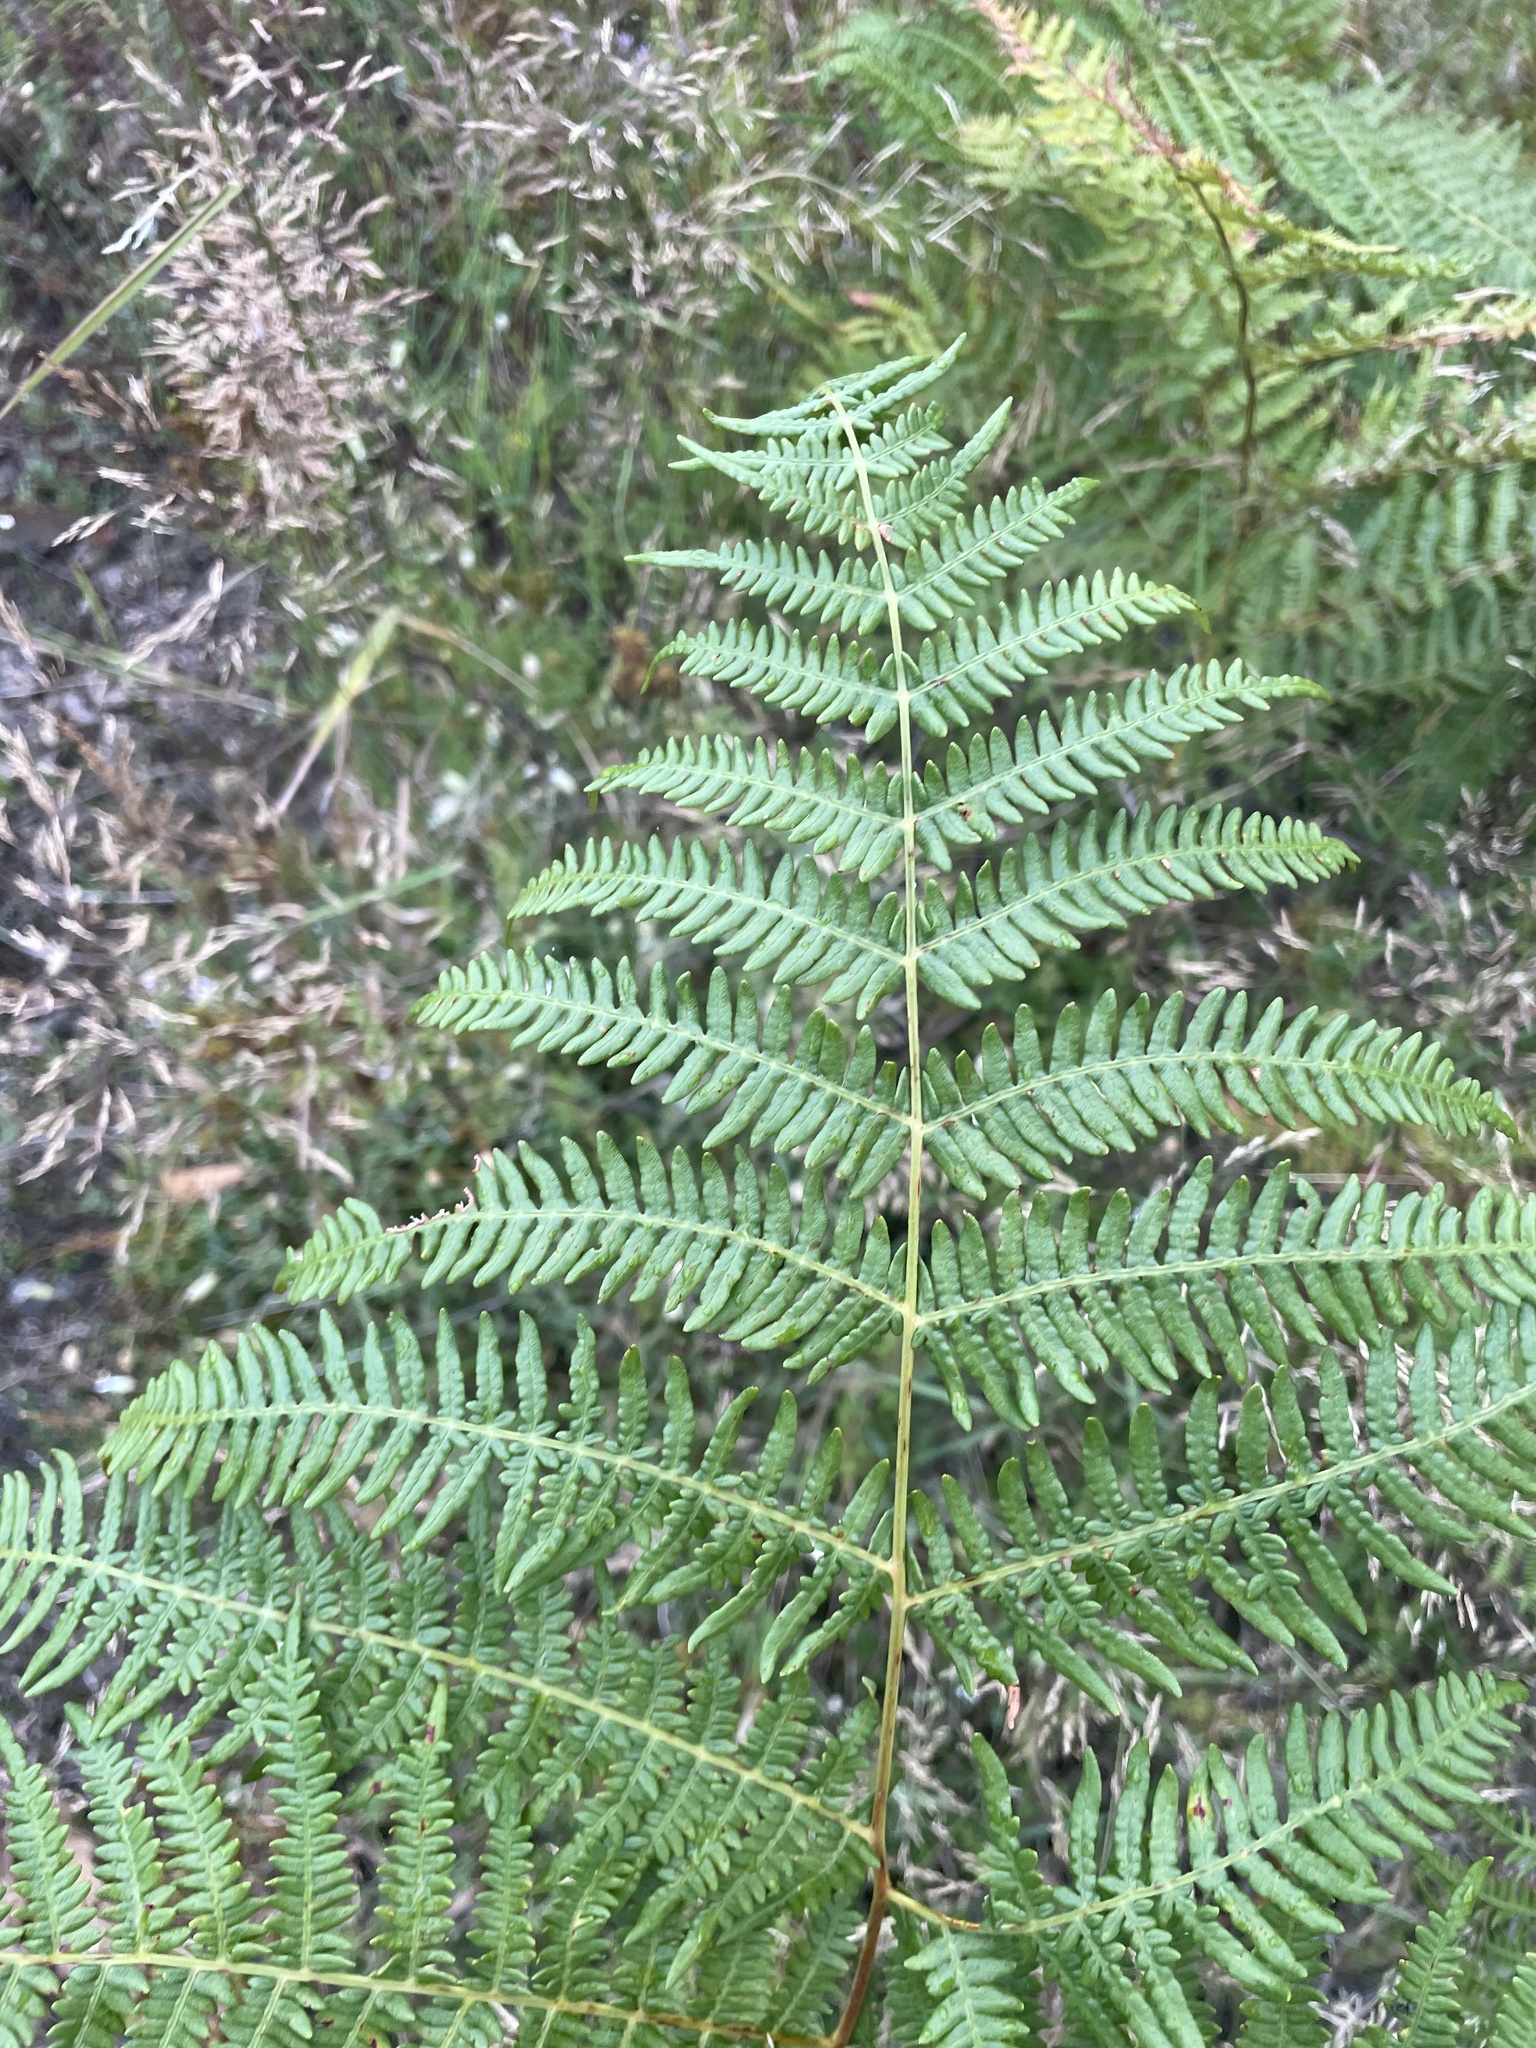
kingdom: Plantae
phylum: Tracheophyta
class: Polypodiopsida
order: Polypodiales
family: Dennstaedtiaceae
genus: Pteridium
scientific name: Pteridium aquilinum
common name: Bracken
